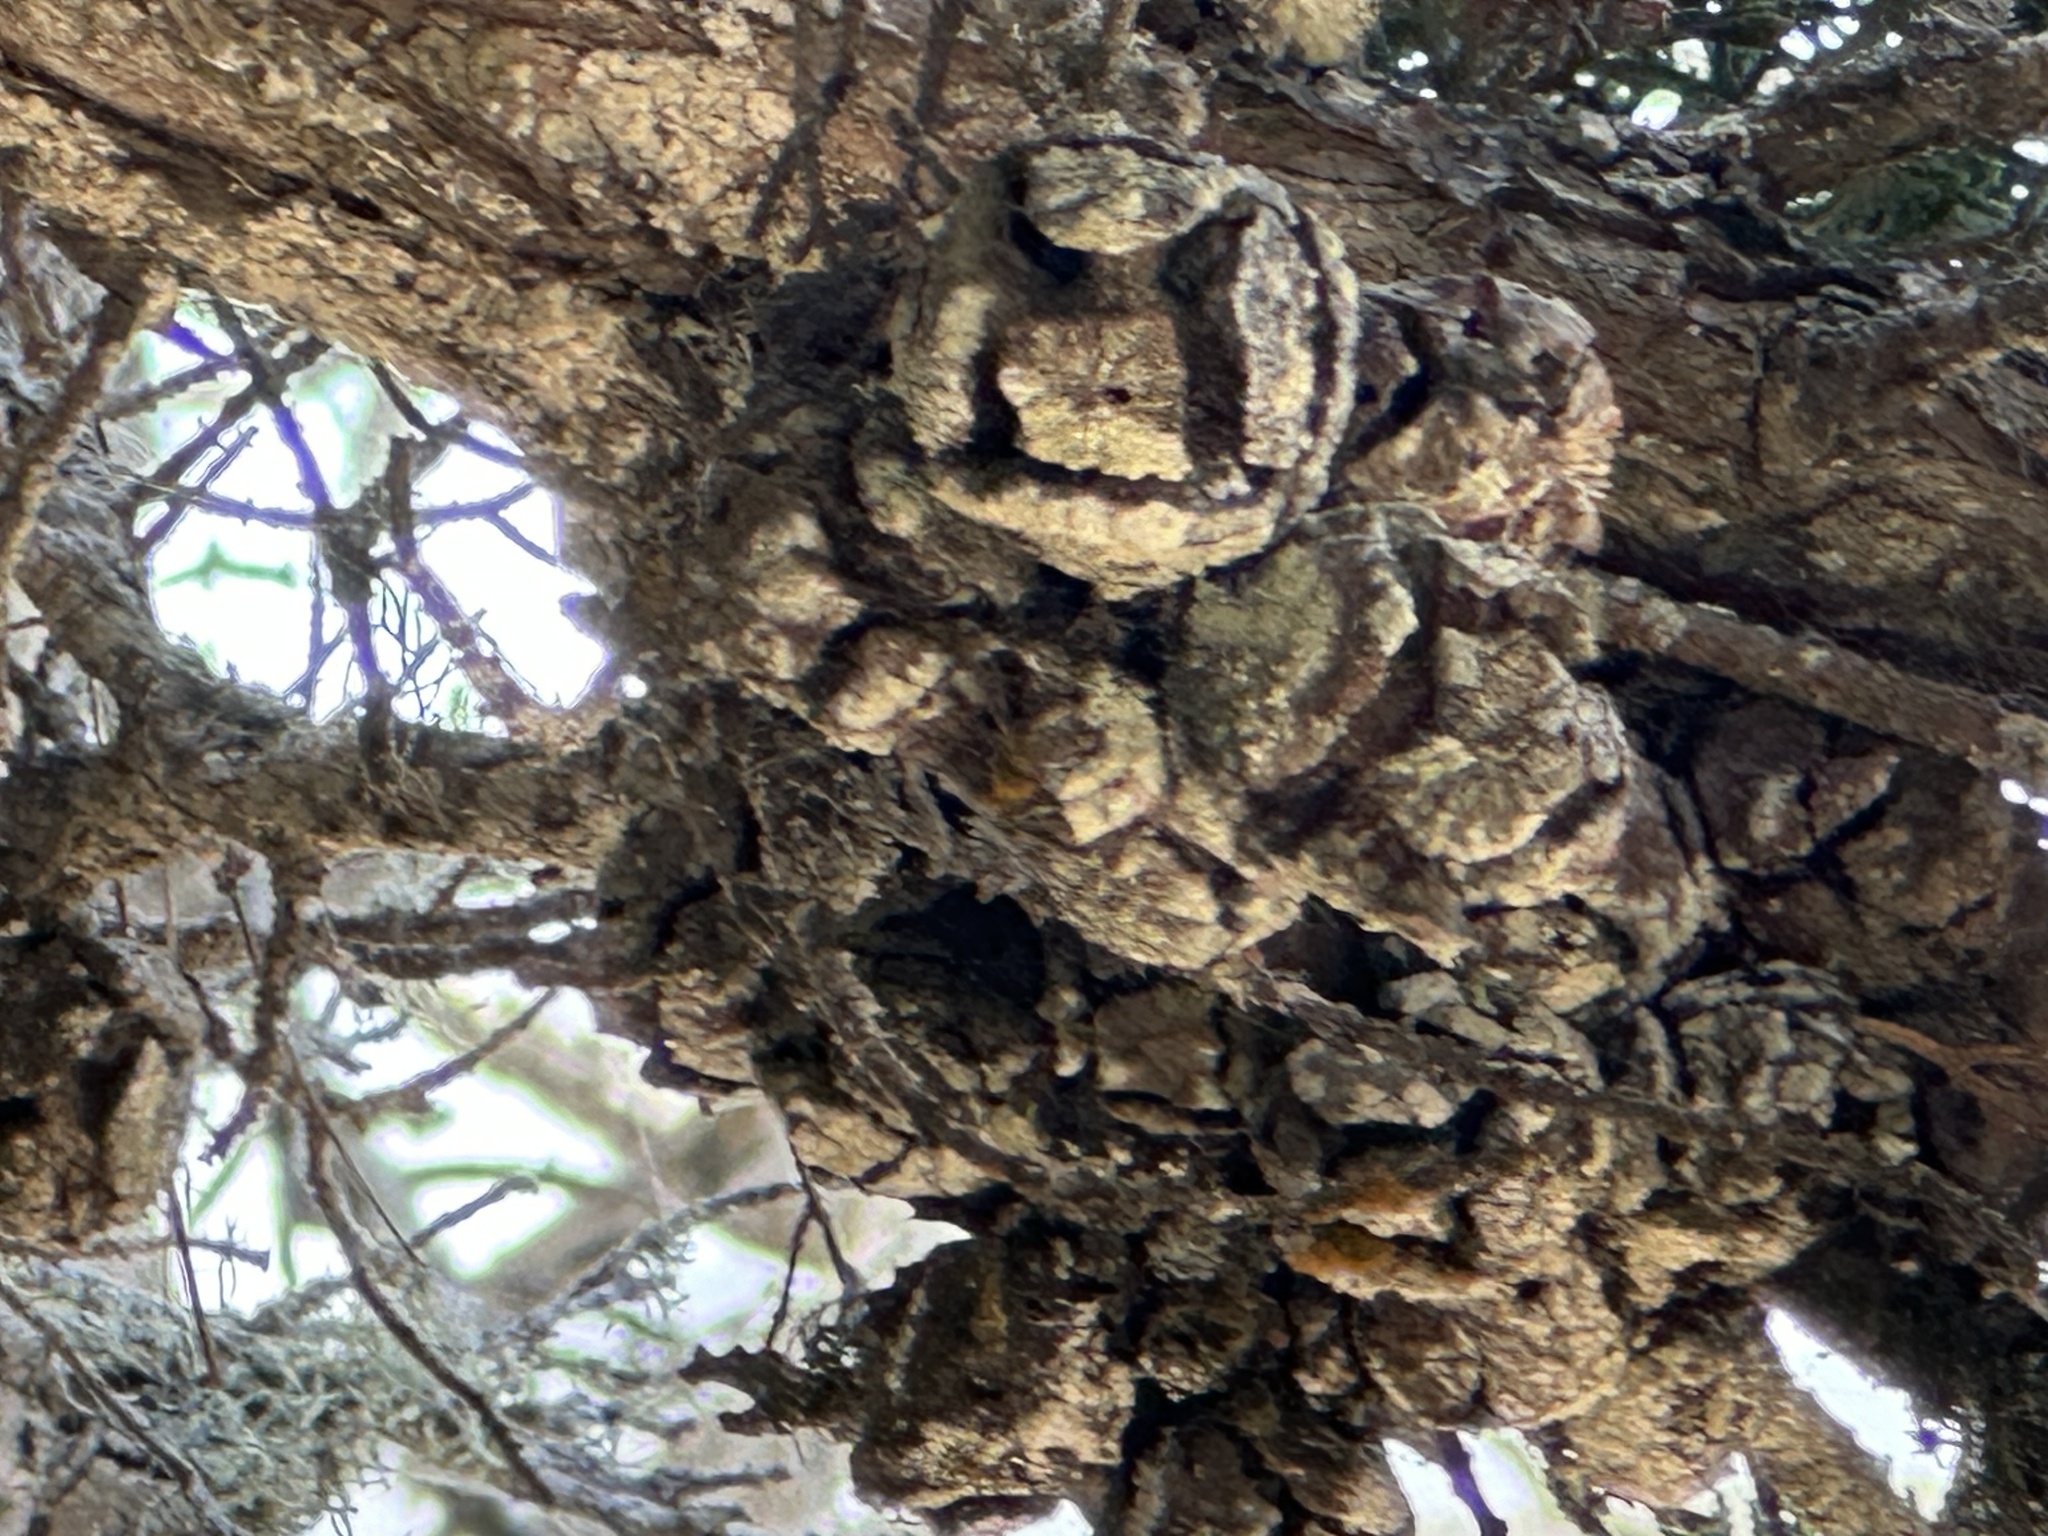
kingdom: Plantae
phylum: Tracheophyta
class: Pinopsida
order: Pinales
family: Cupressaceae
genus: Cupressus
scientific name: Cupressus macrocarpa
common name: Monterey cypress
